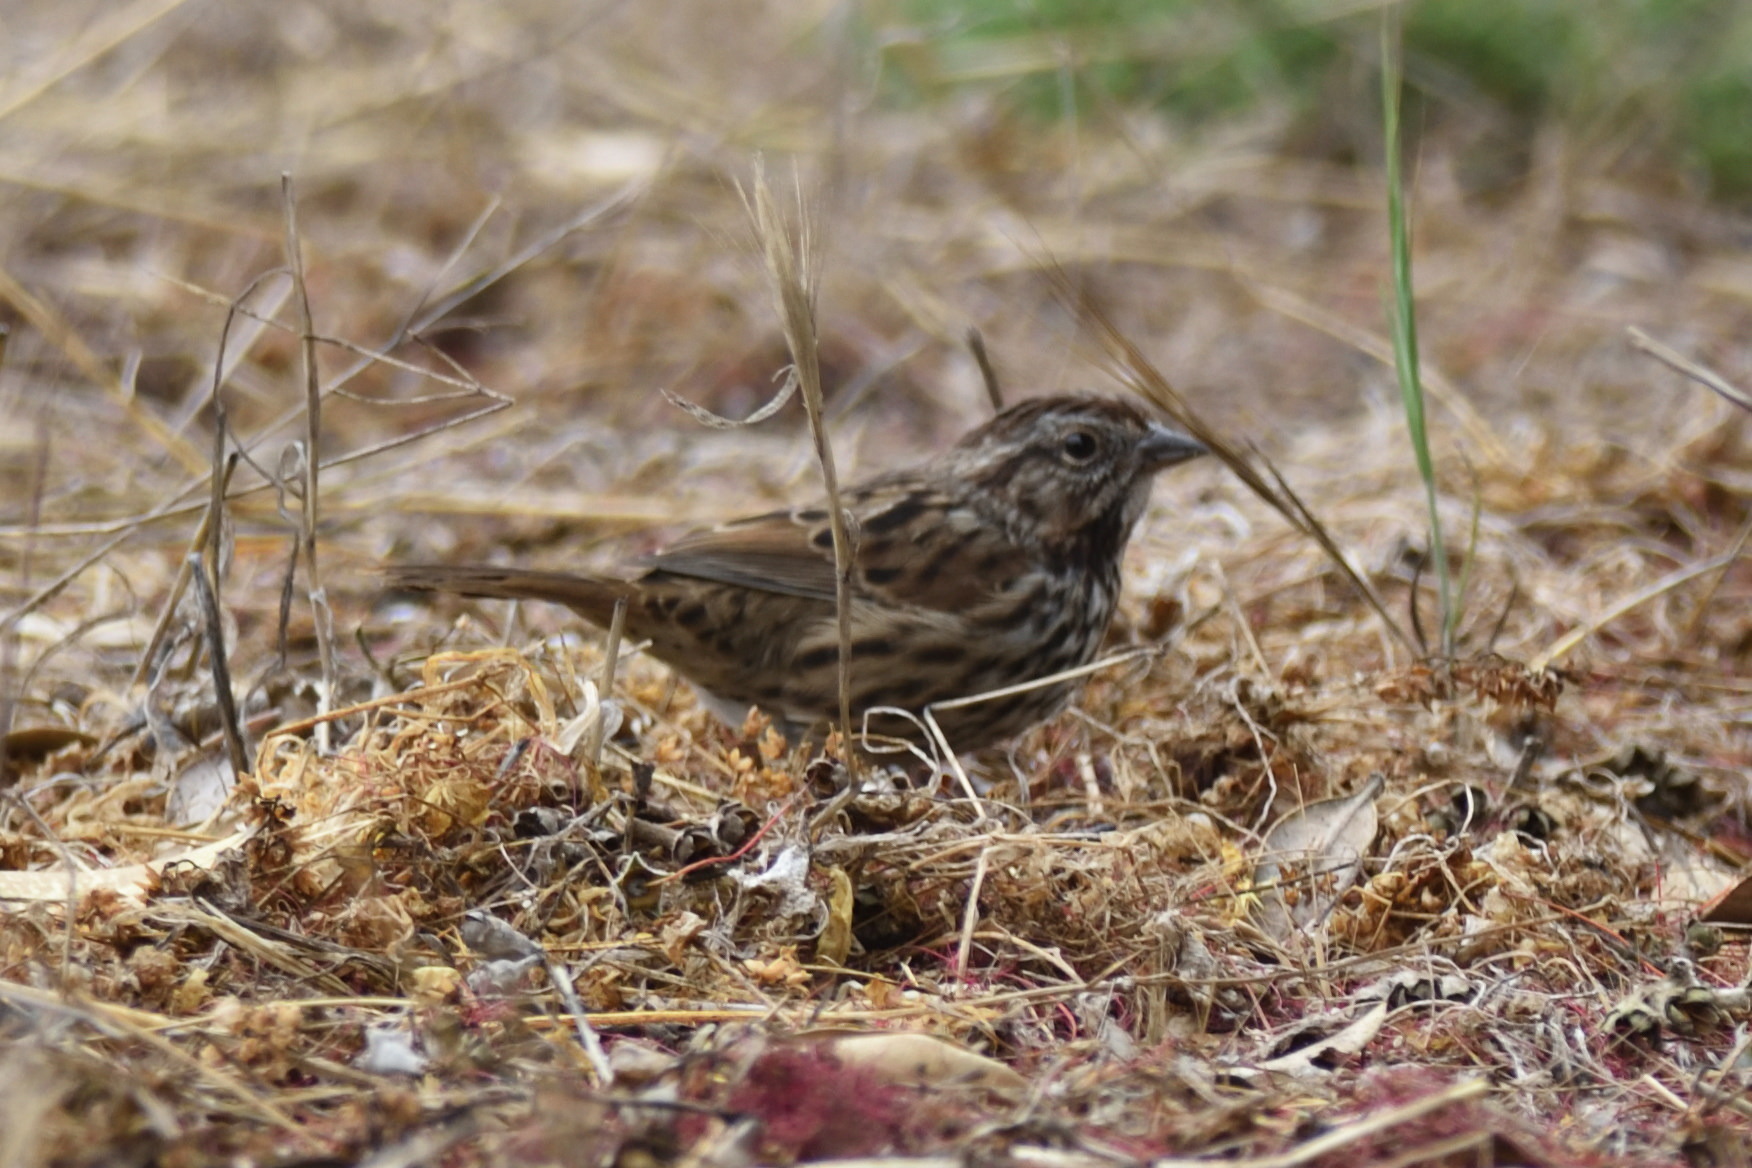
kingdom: Animalia
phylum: Chordata
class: Aves
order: Passeriformes
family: Passerellidae
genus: Melospiza
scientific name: Melospiza melodia
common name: Song sparrow
